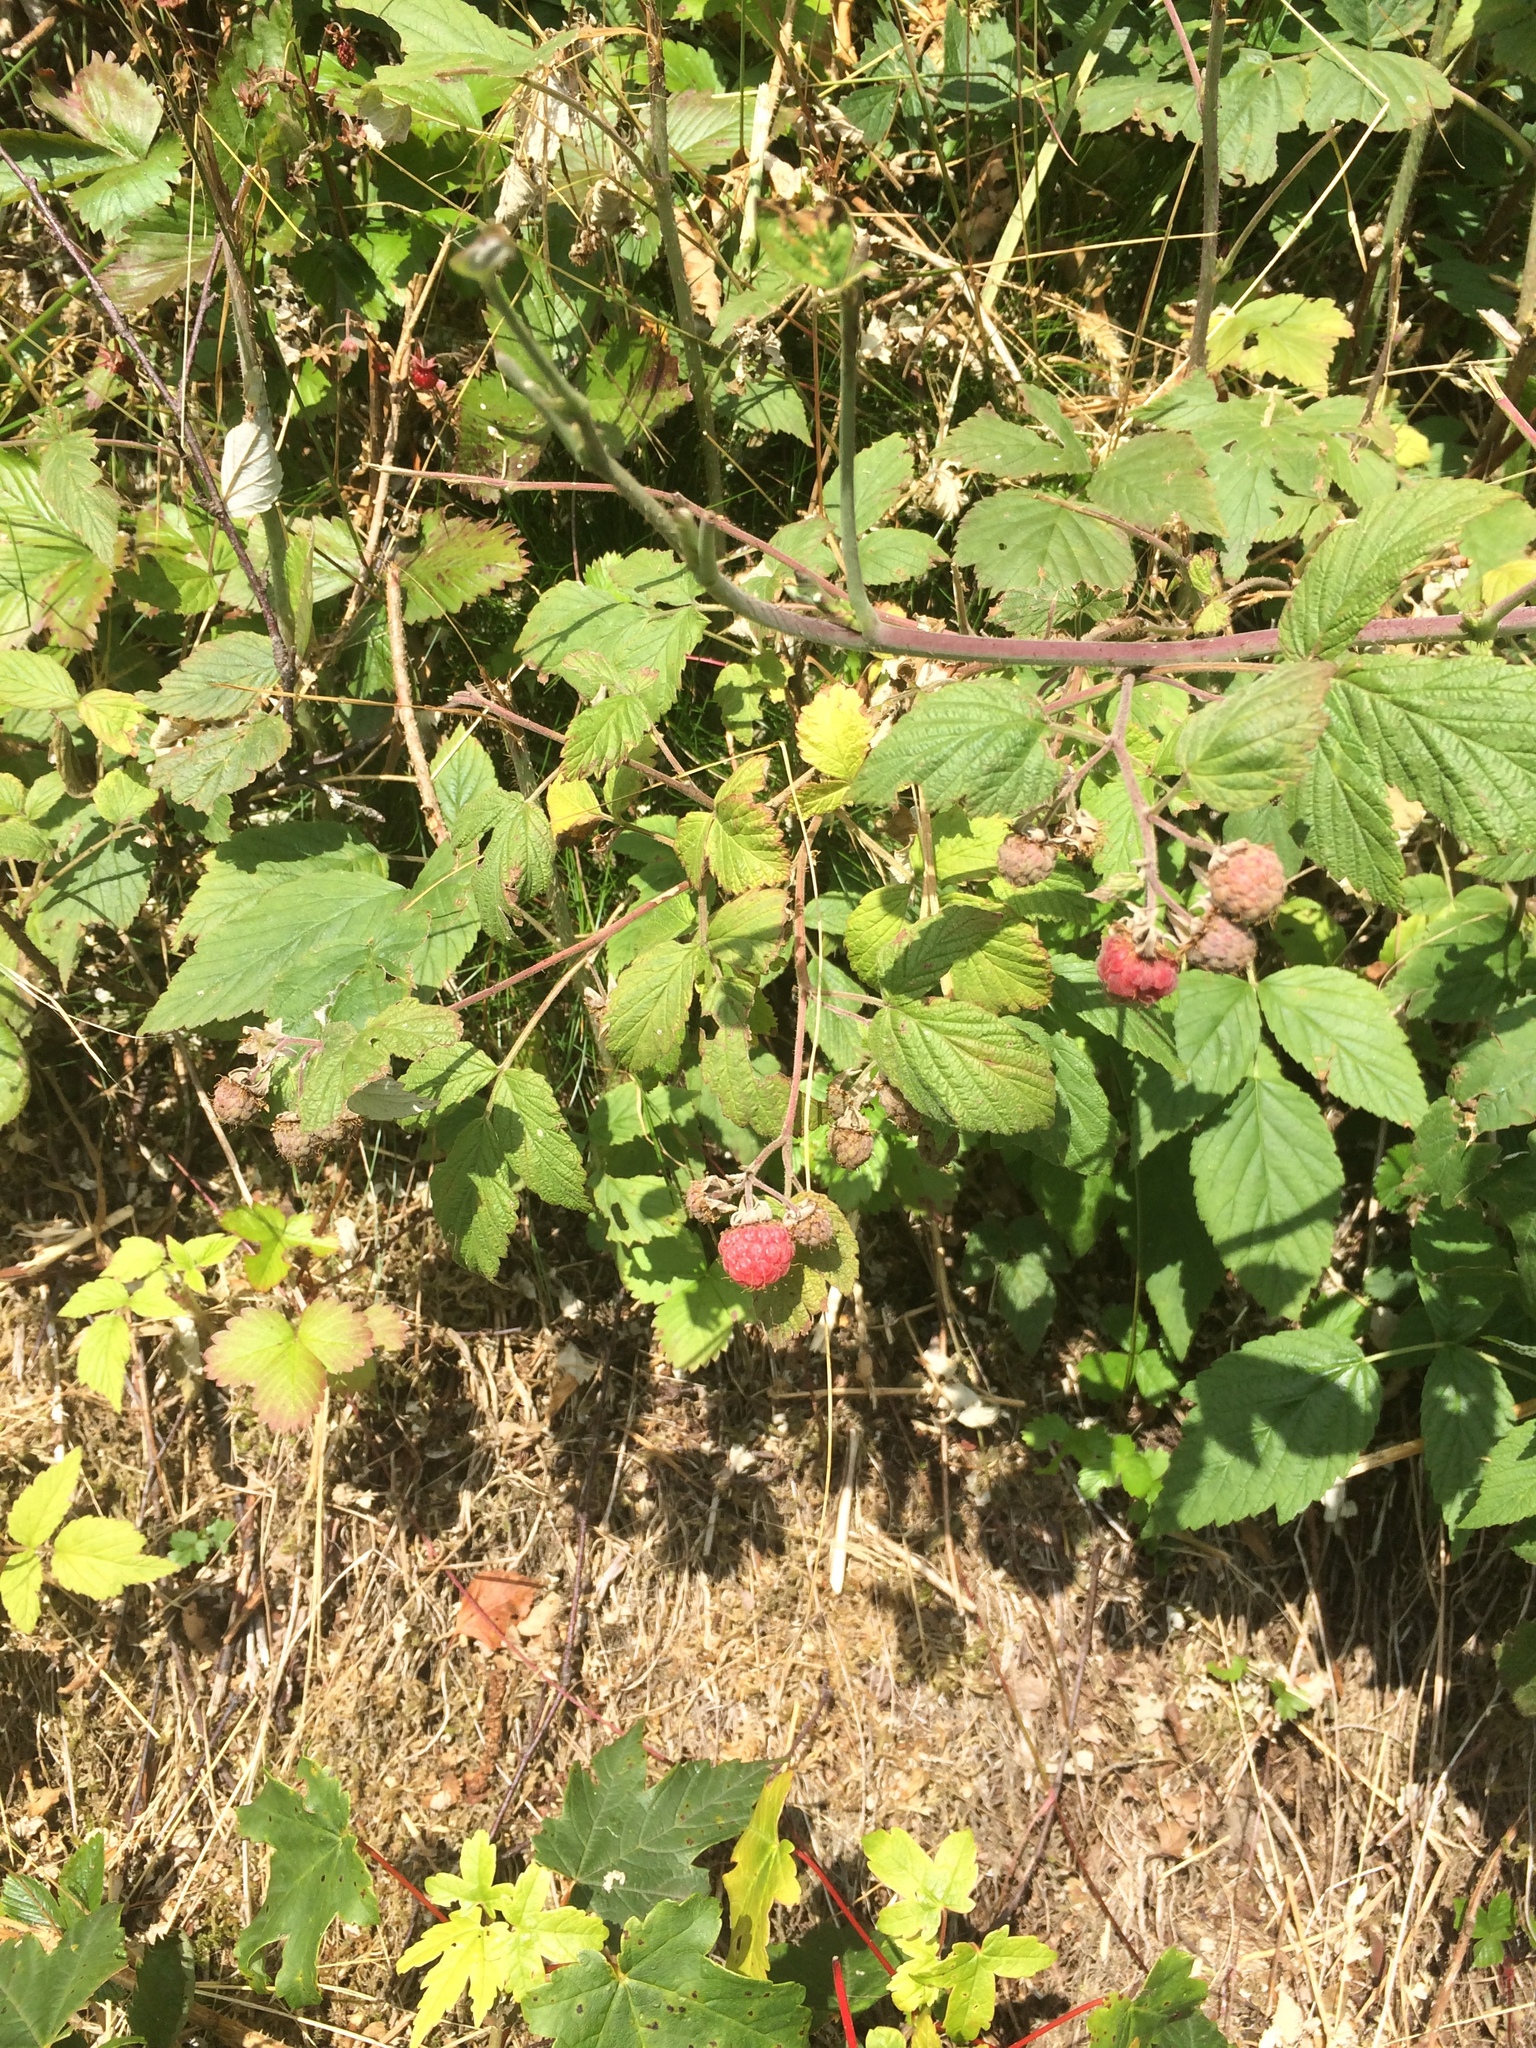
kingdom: Plantae
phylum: Tracheophyta
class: Magnoliopsida
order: Rosales
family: Rosaceae
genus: Rubus
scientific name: Rubus idaeus
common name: Raspberry
